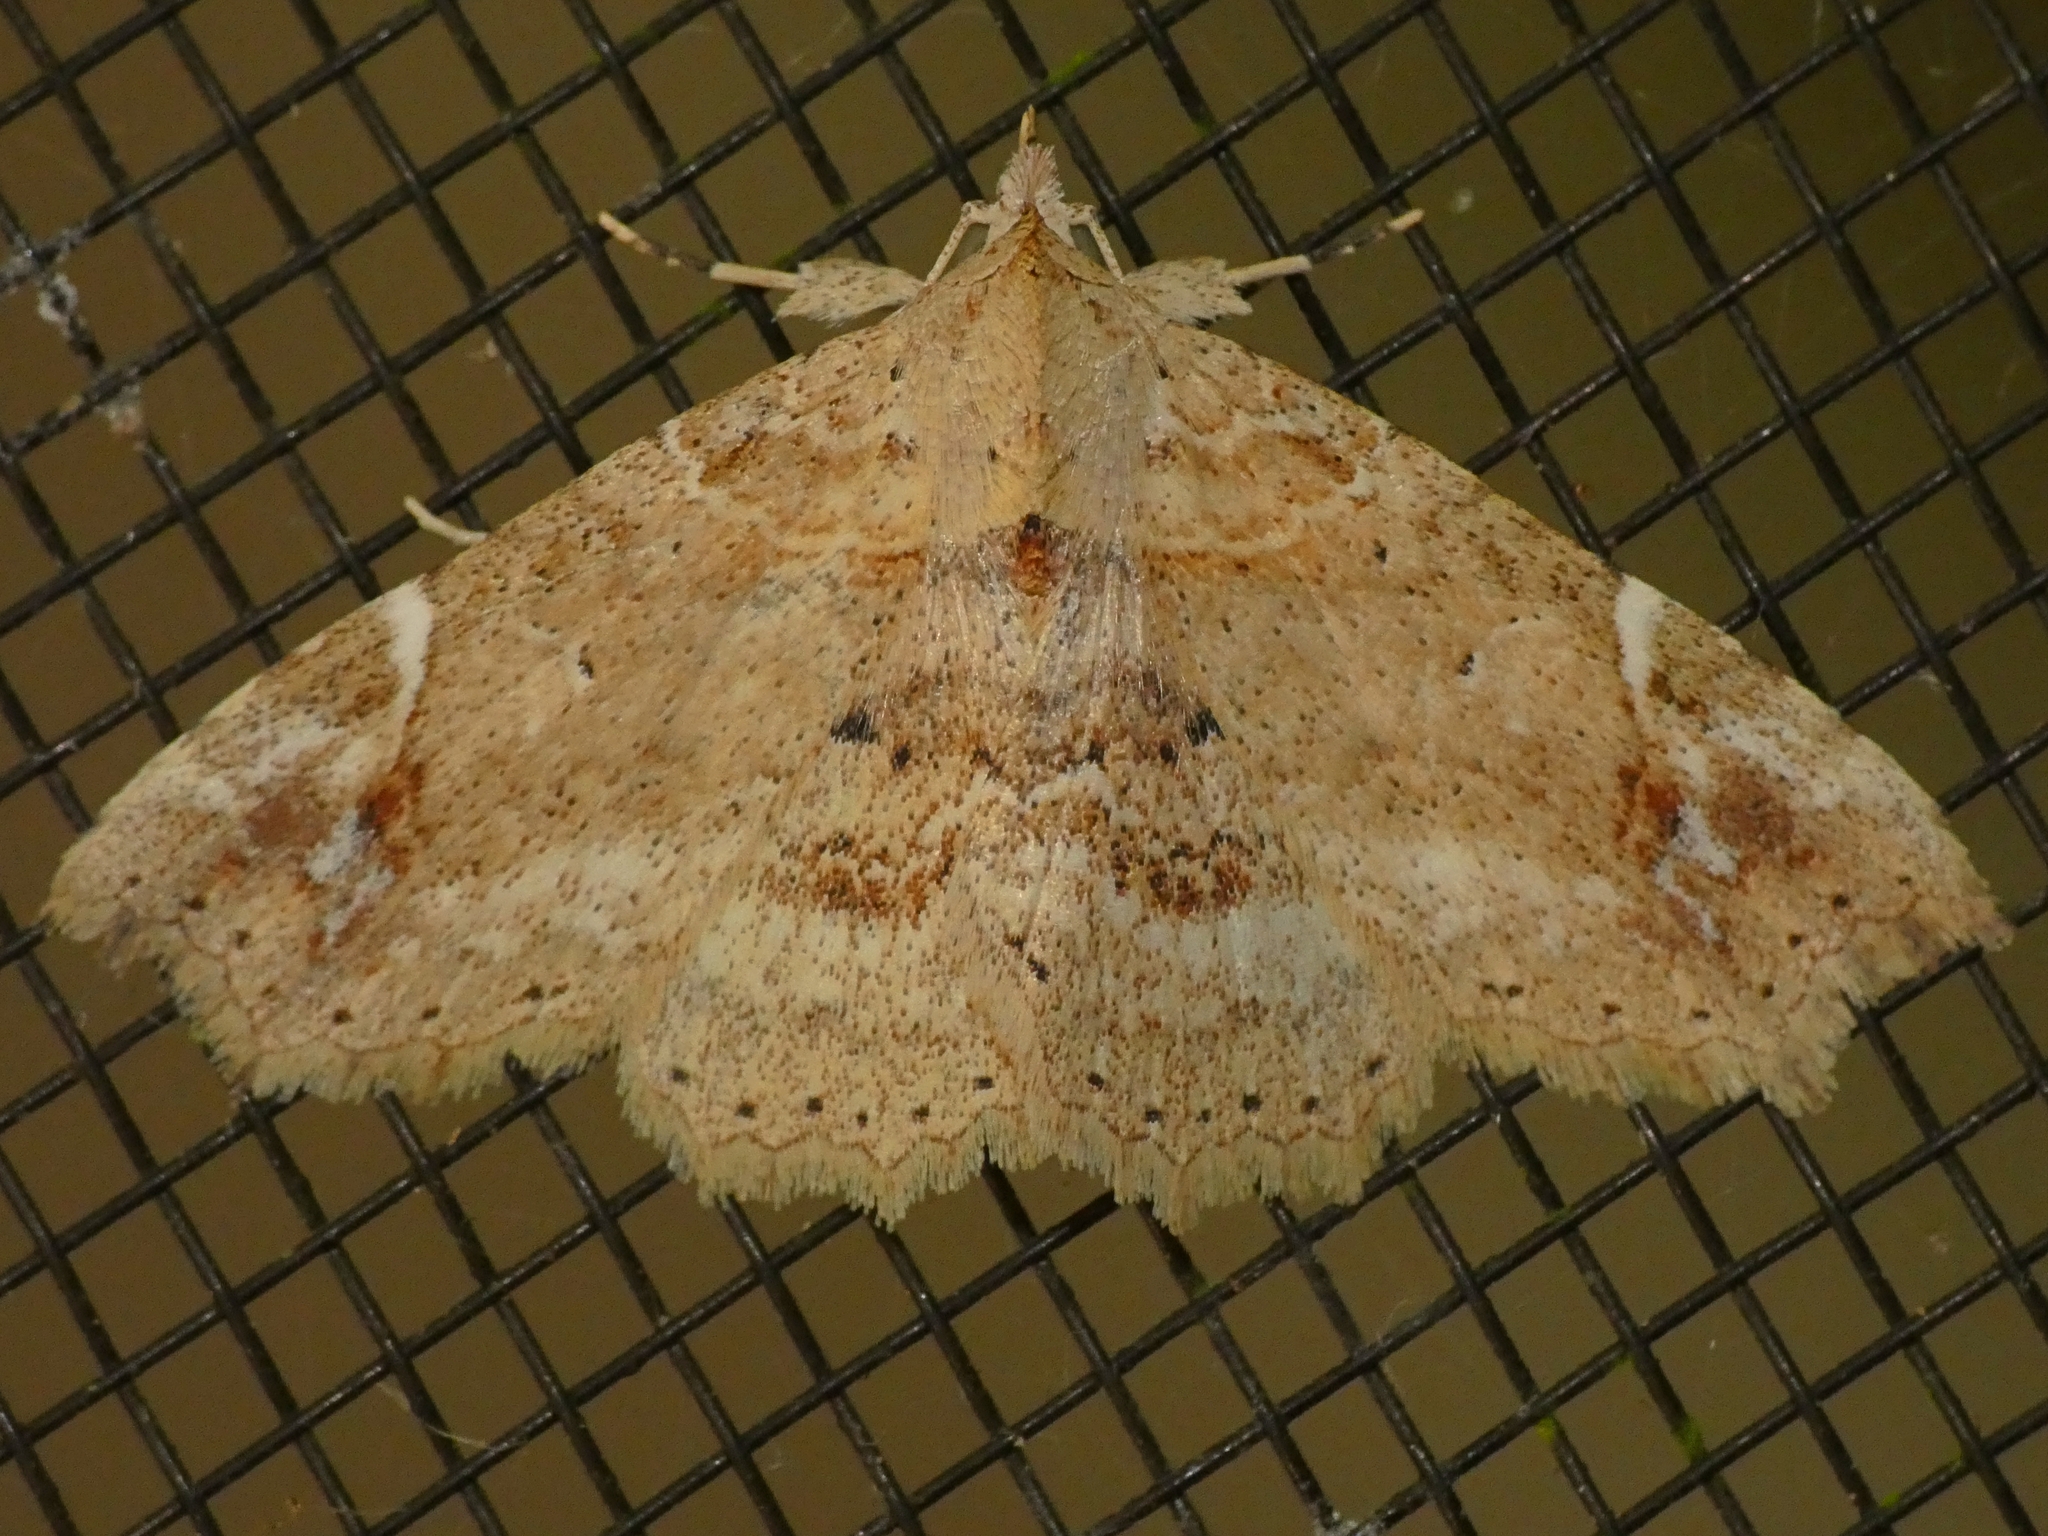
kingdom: Animalia
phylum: Arthropoda
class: Insecta
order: Lepidoptera
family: Erebidae
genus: Tamba
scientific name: Tamba elachista
